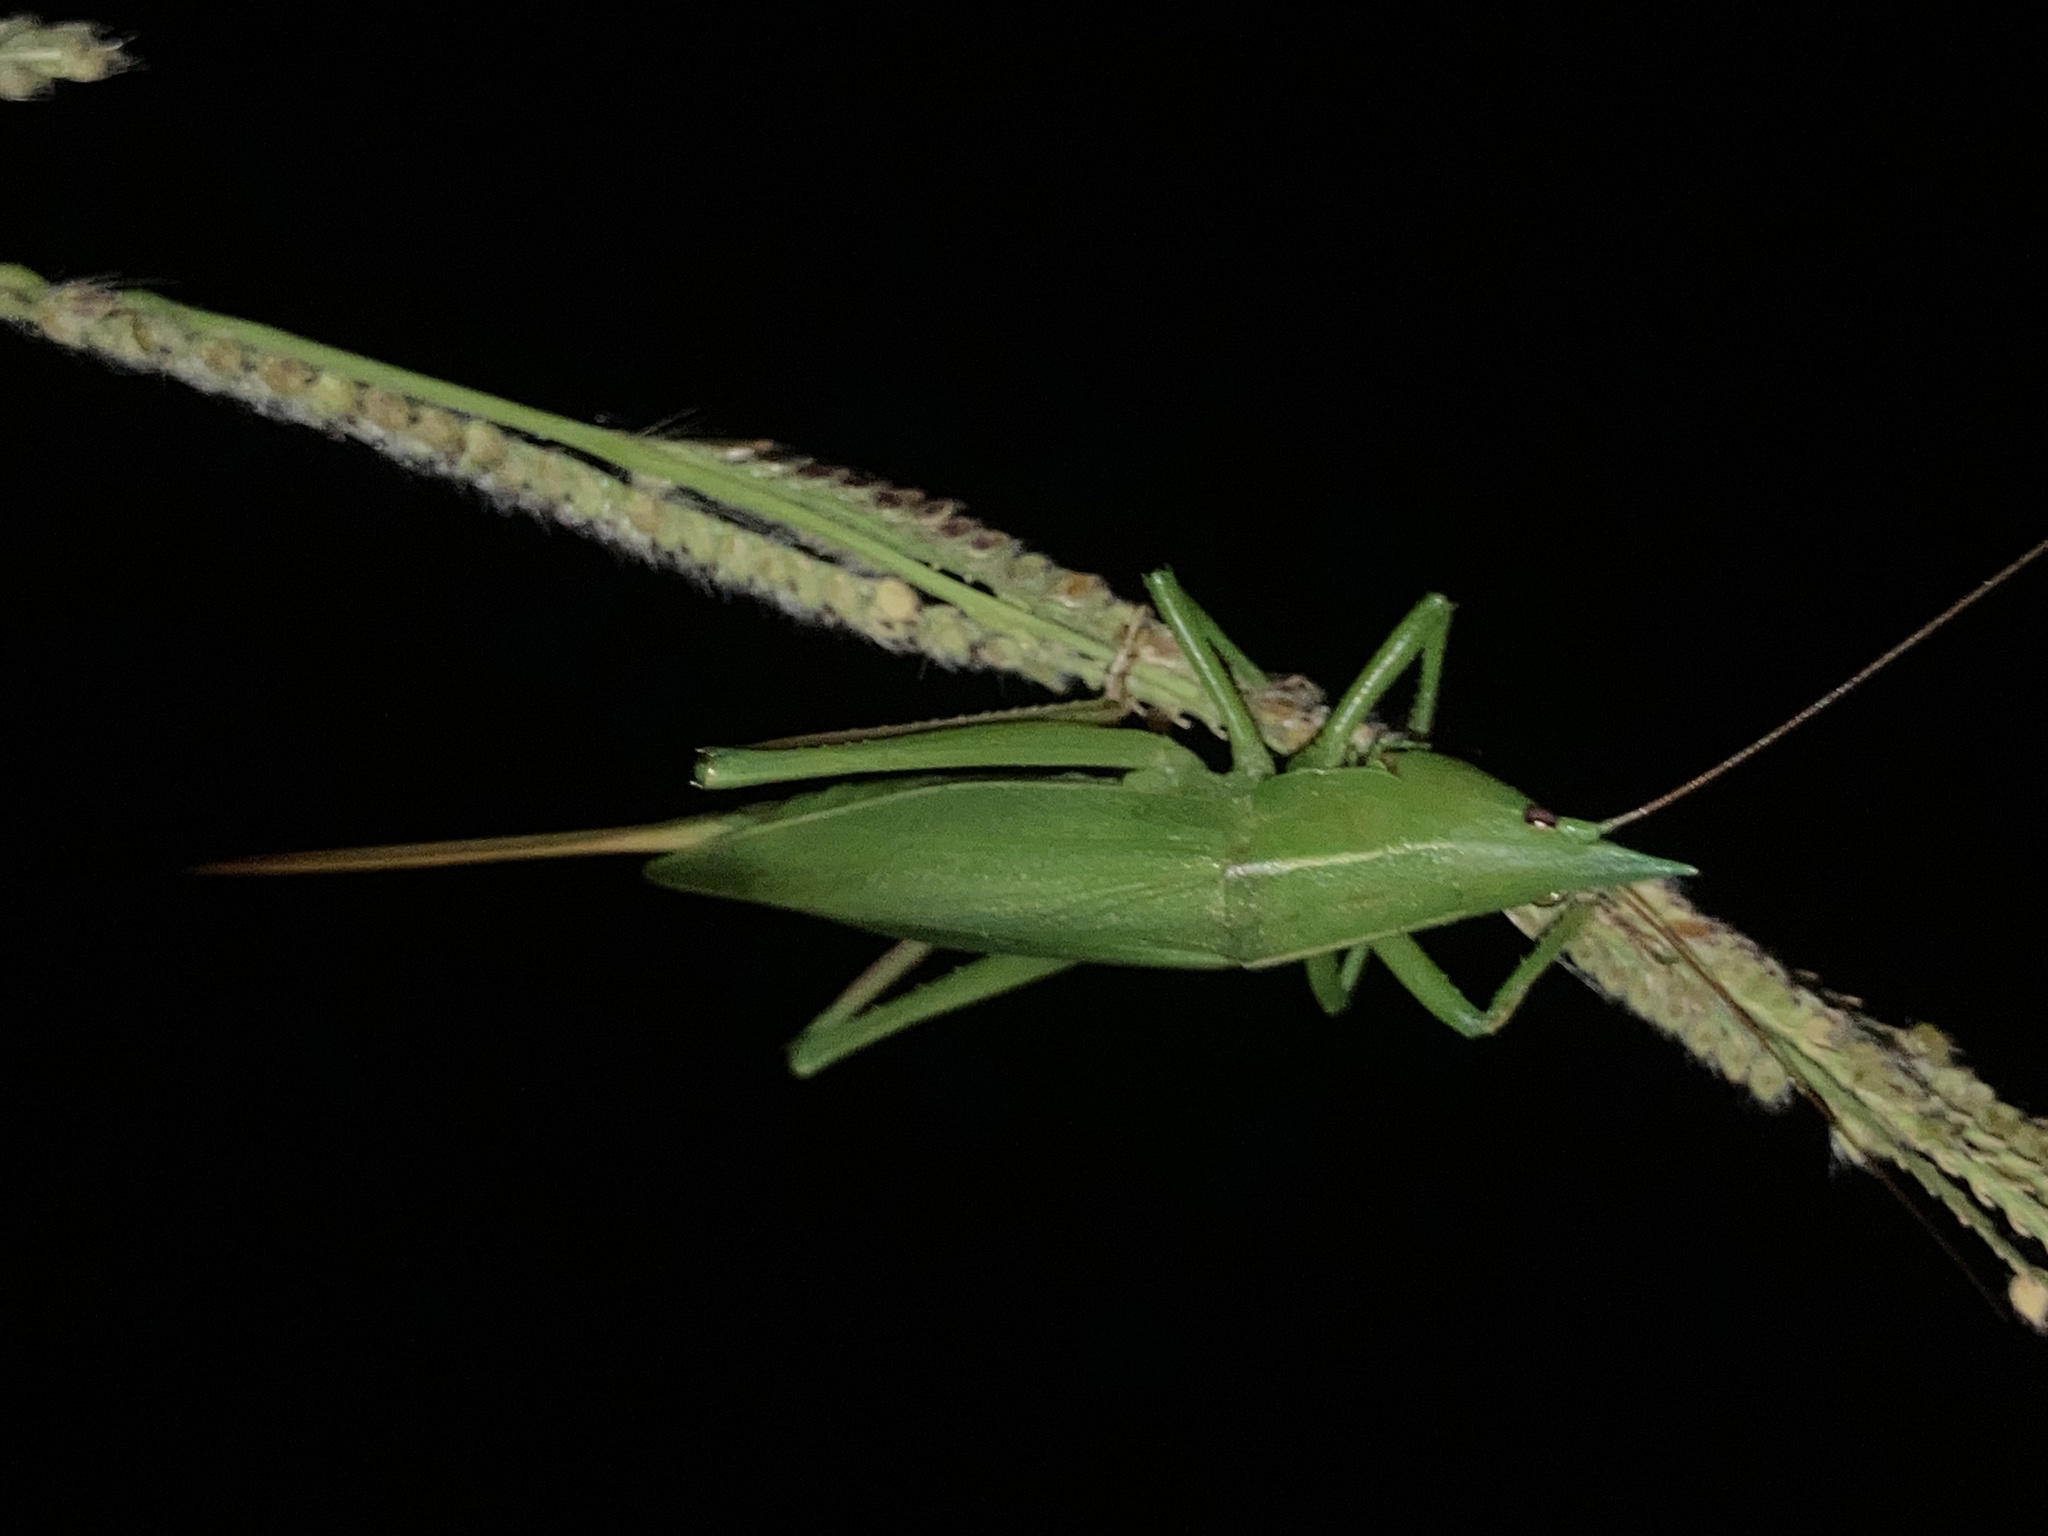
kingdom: Animalia
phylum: Arthropoda
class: Insecta
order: Orthoptera
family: Tettigoniidae
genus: Pseudorhynchus
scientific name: Pseudorhynchus mimeticus
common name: Mimicking snout-nosed katydid
